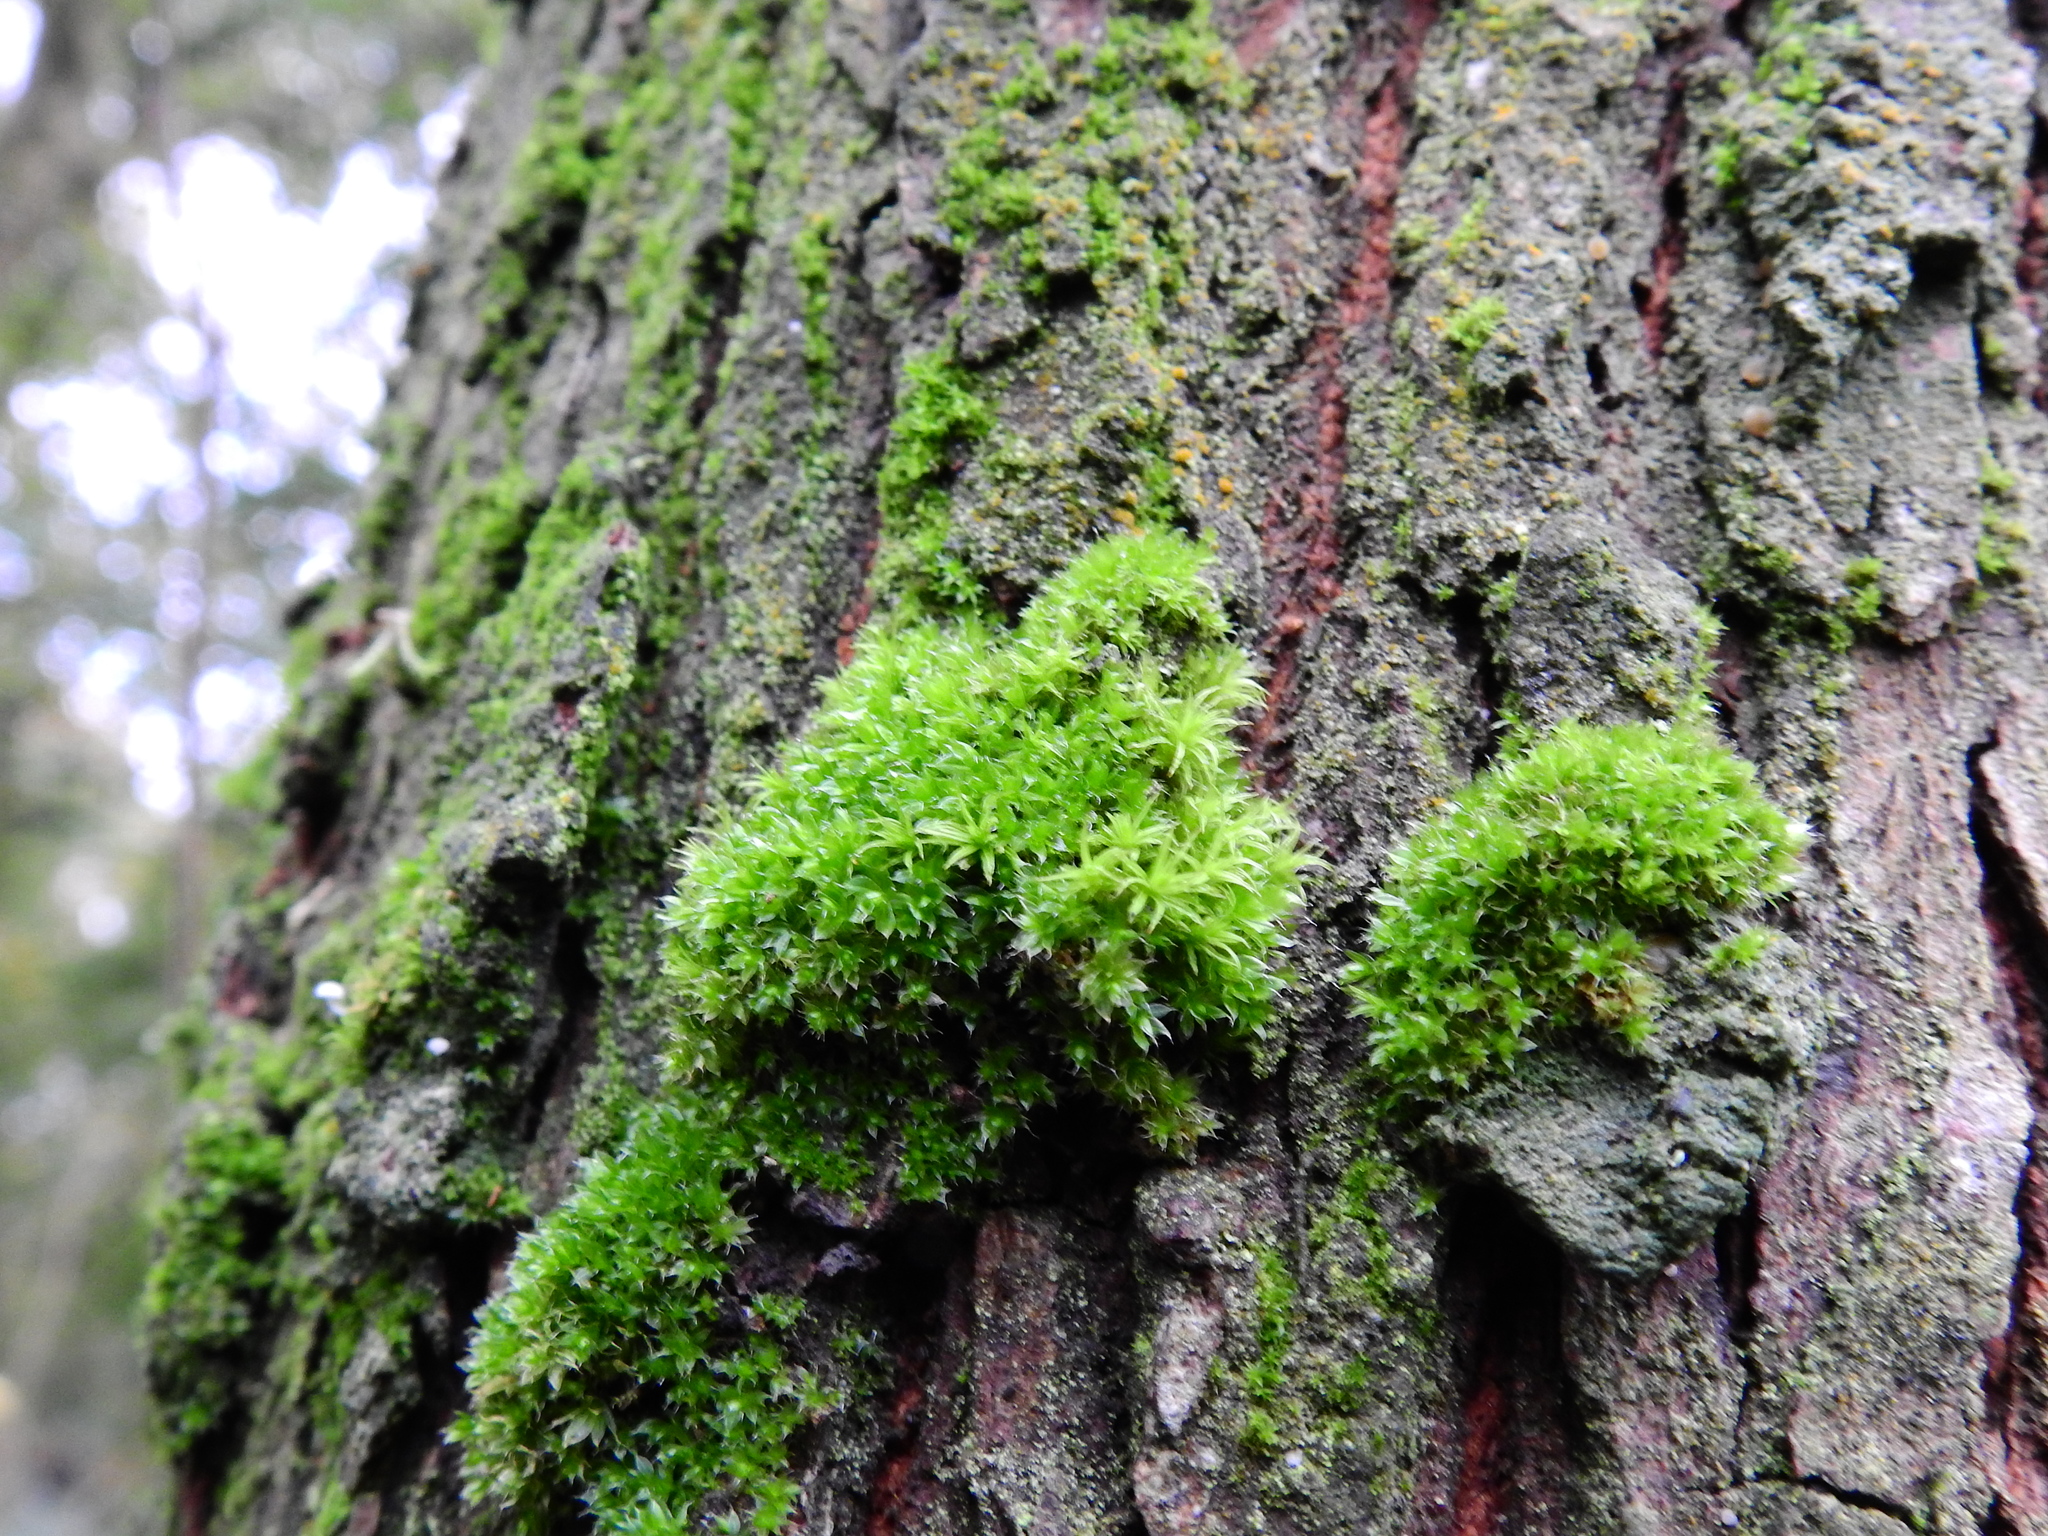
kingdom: Plantae
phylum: Bryophyta
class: Bryopsida
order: Bryales
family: Bryaceae
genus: Rosulabryum
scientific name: Rosulabryum capillare
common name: Capillary thread-moss
